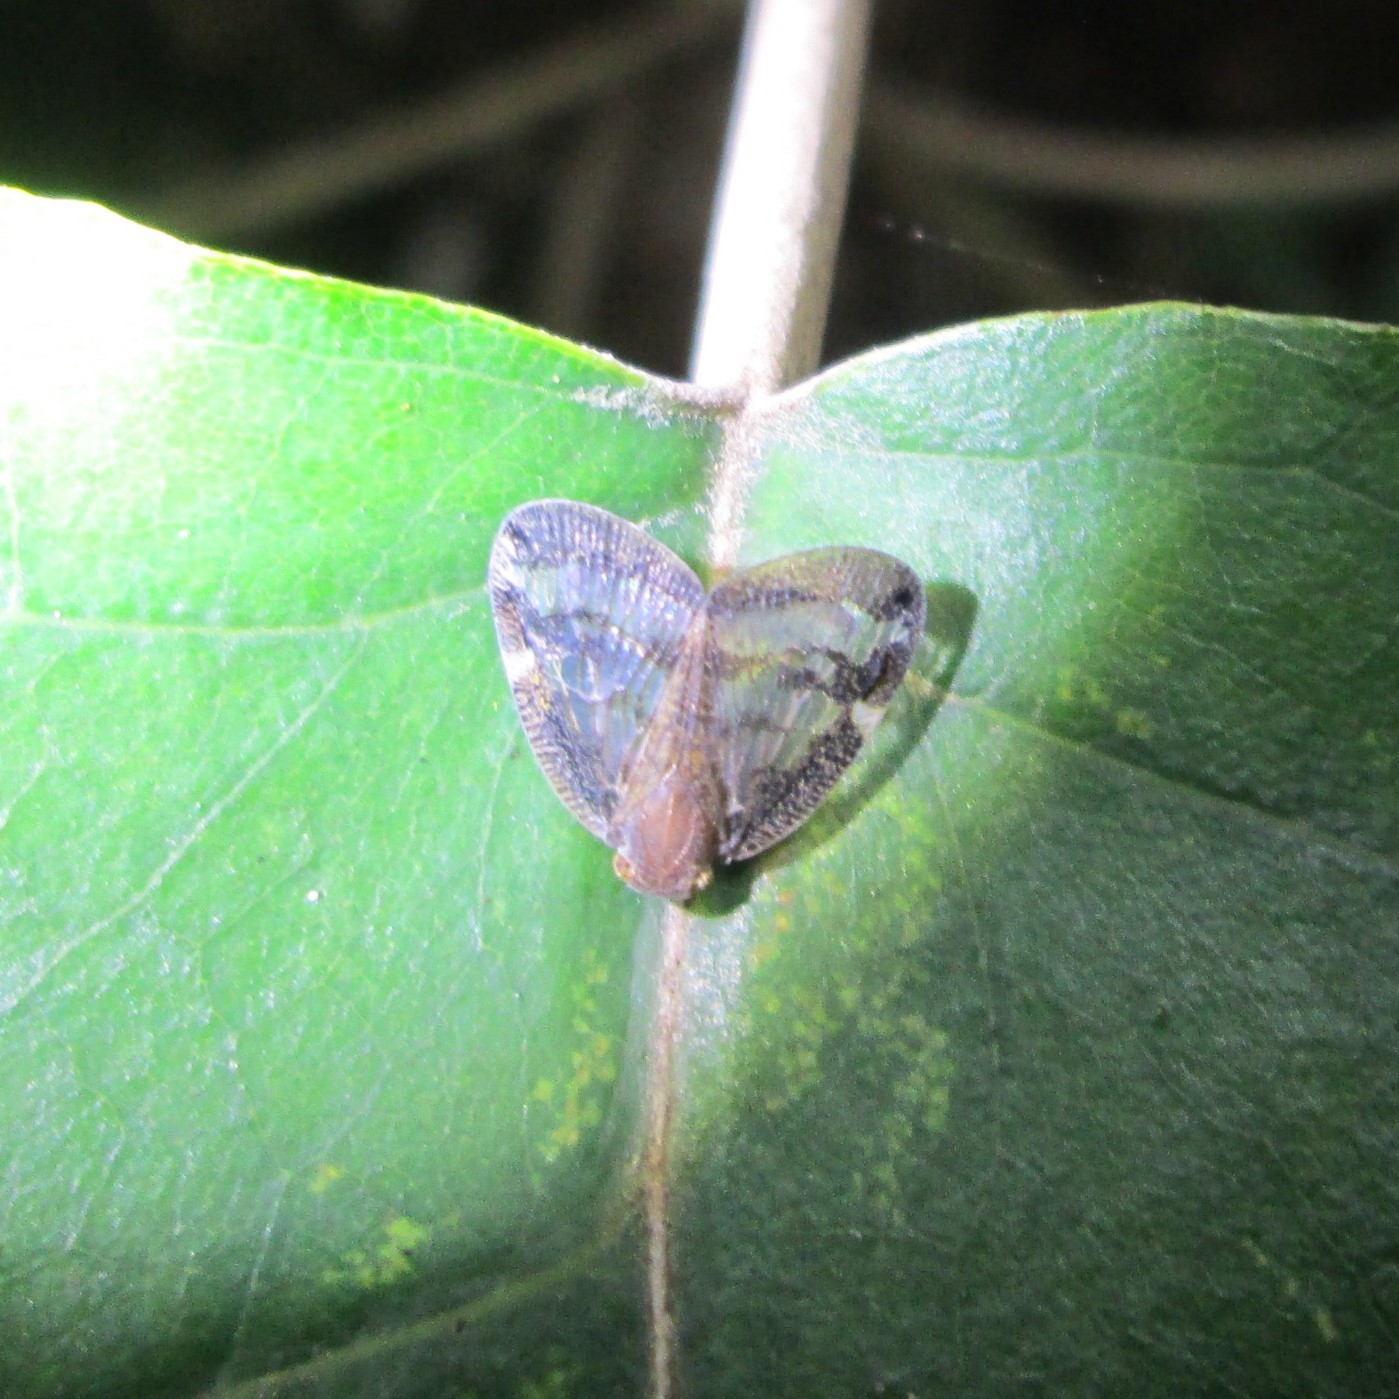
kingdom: Animalia
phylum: Arthropoda
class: Insecta
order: Hemiptera
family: Ricaniidae
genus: Scolypopa
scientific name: Scolypopa australis
